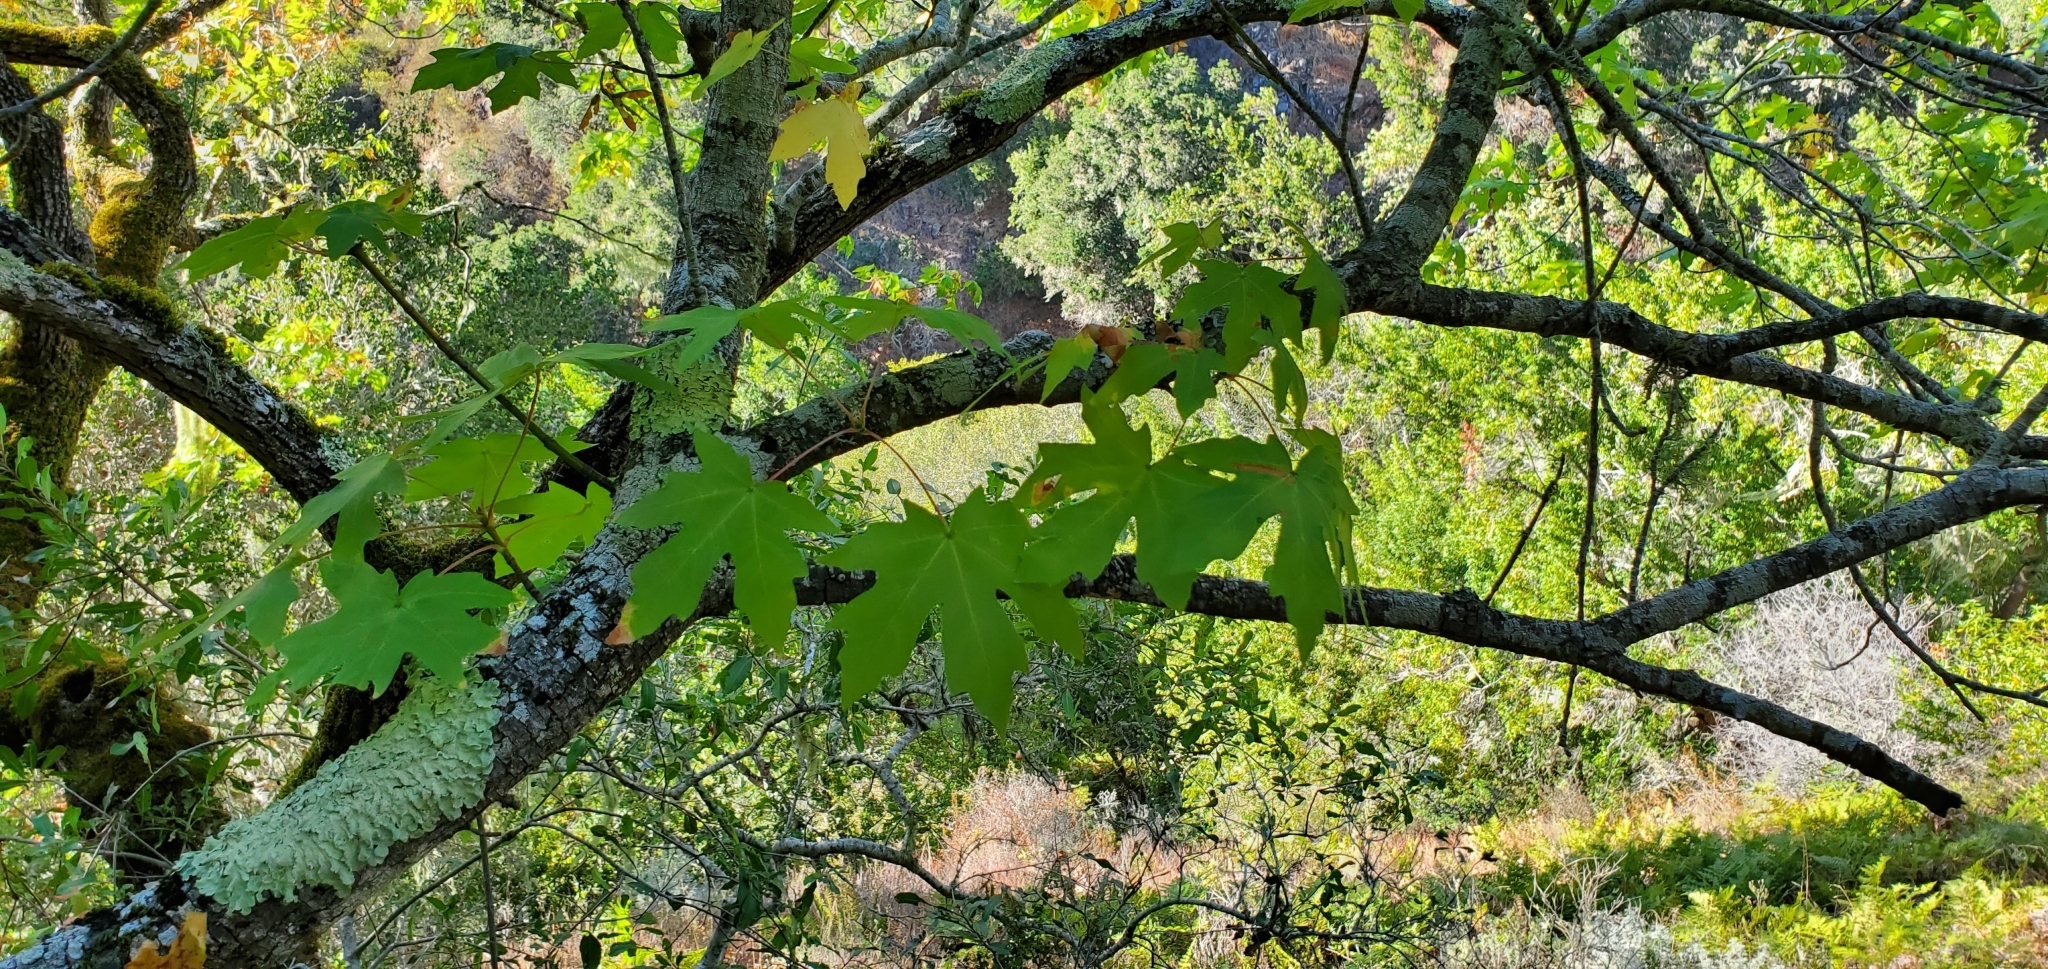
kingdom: Plantae
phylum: Tracheophyta
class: Magnoliopsida
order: Sapindales
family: Sapindaceae
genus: Acer
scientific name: Acer macrophyllum
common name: Oregon maple
